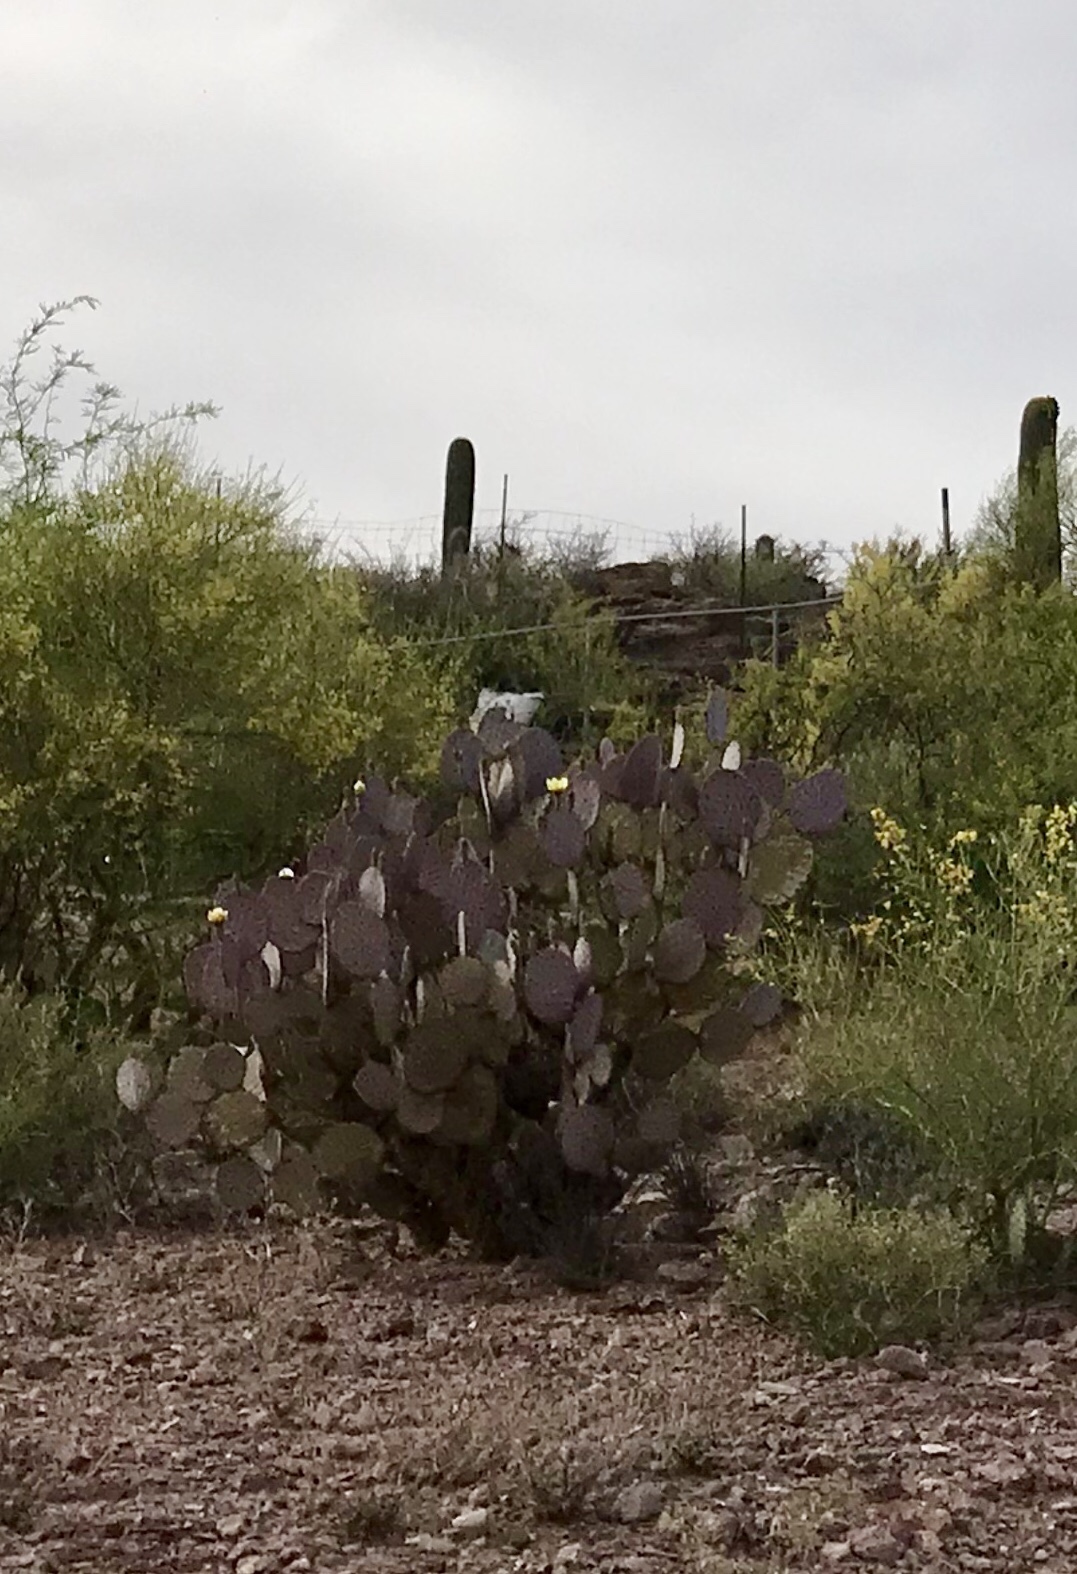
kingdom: Plantae
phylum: Tracheophyta
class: Magnoliopsida
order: Caryophyllales
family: Cactaceae
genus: Opuntia
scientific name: Opuntia gosseliniana
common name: Violet prickly-pear
